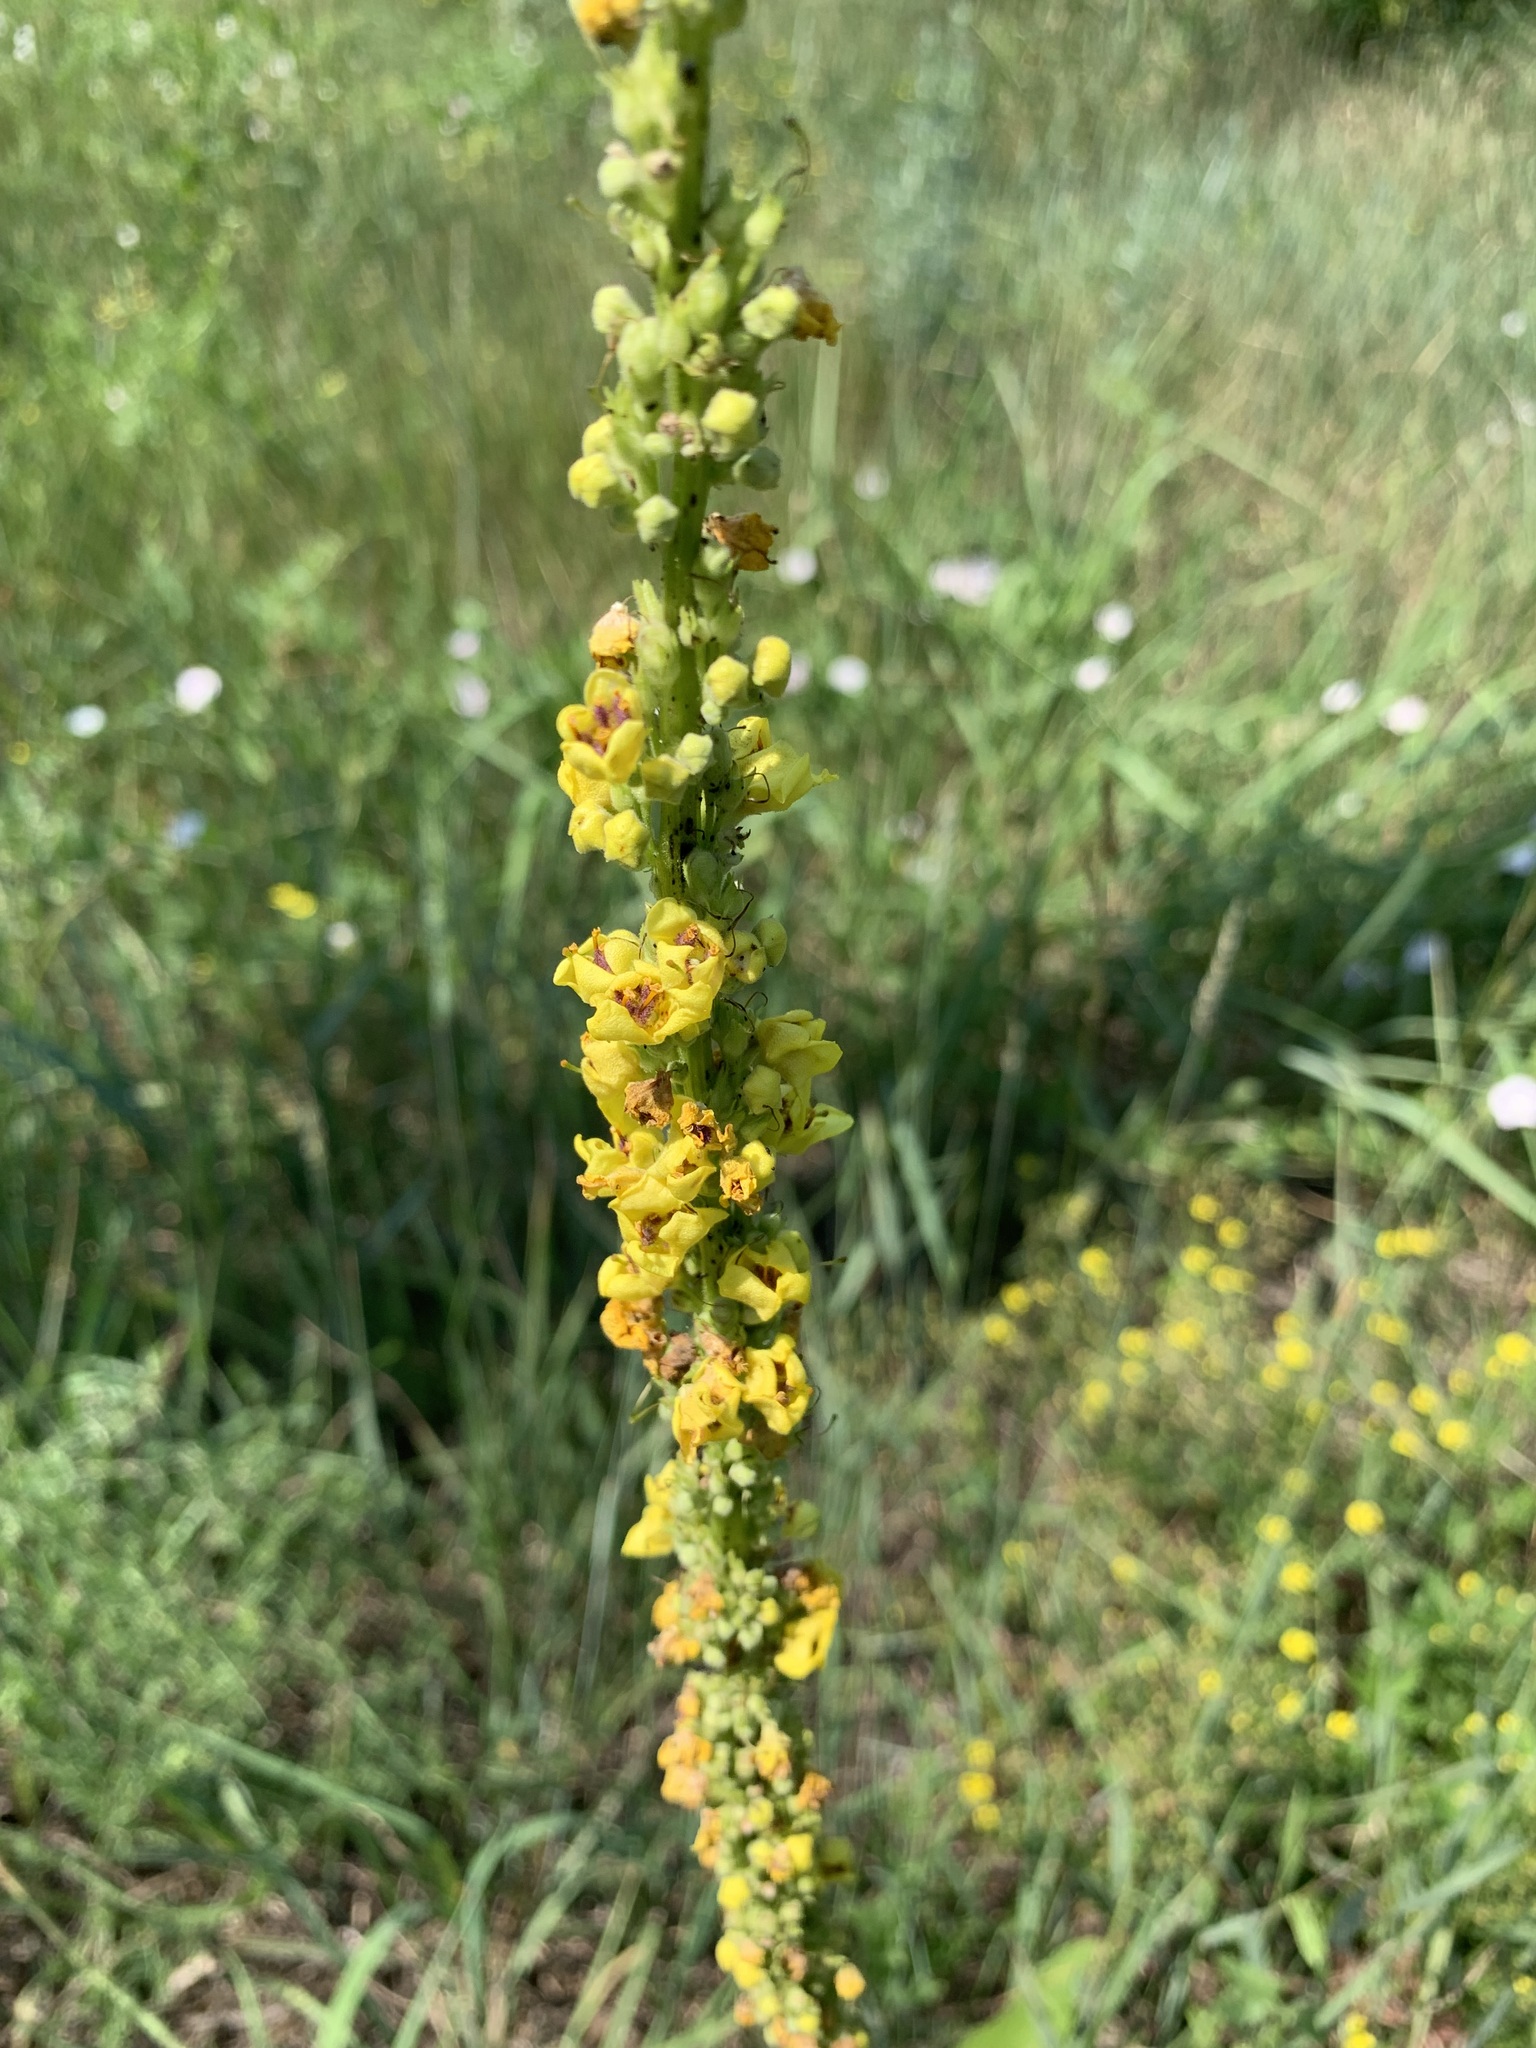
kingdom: Plantae
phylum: Tracheophyta
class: Magnoliopsida
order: Lamiales
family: Scrophulariaceae
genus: Verbascum
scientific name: Verbascum nigrum
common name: Dark mullein
